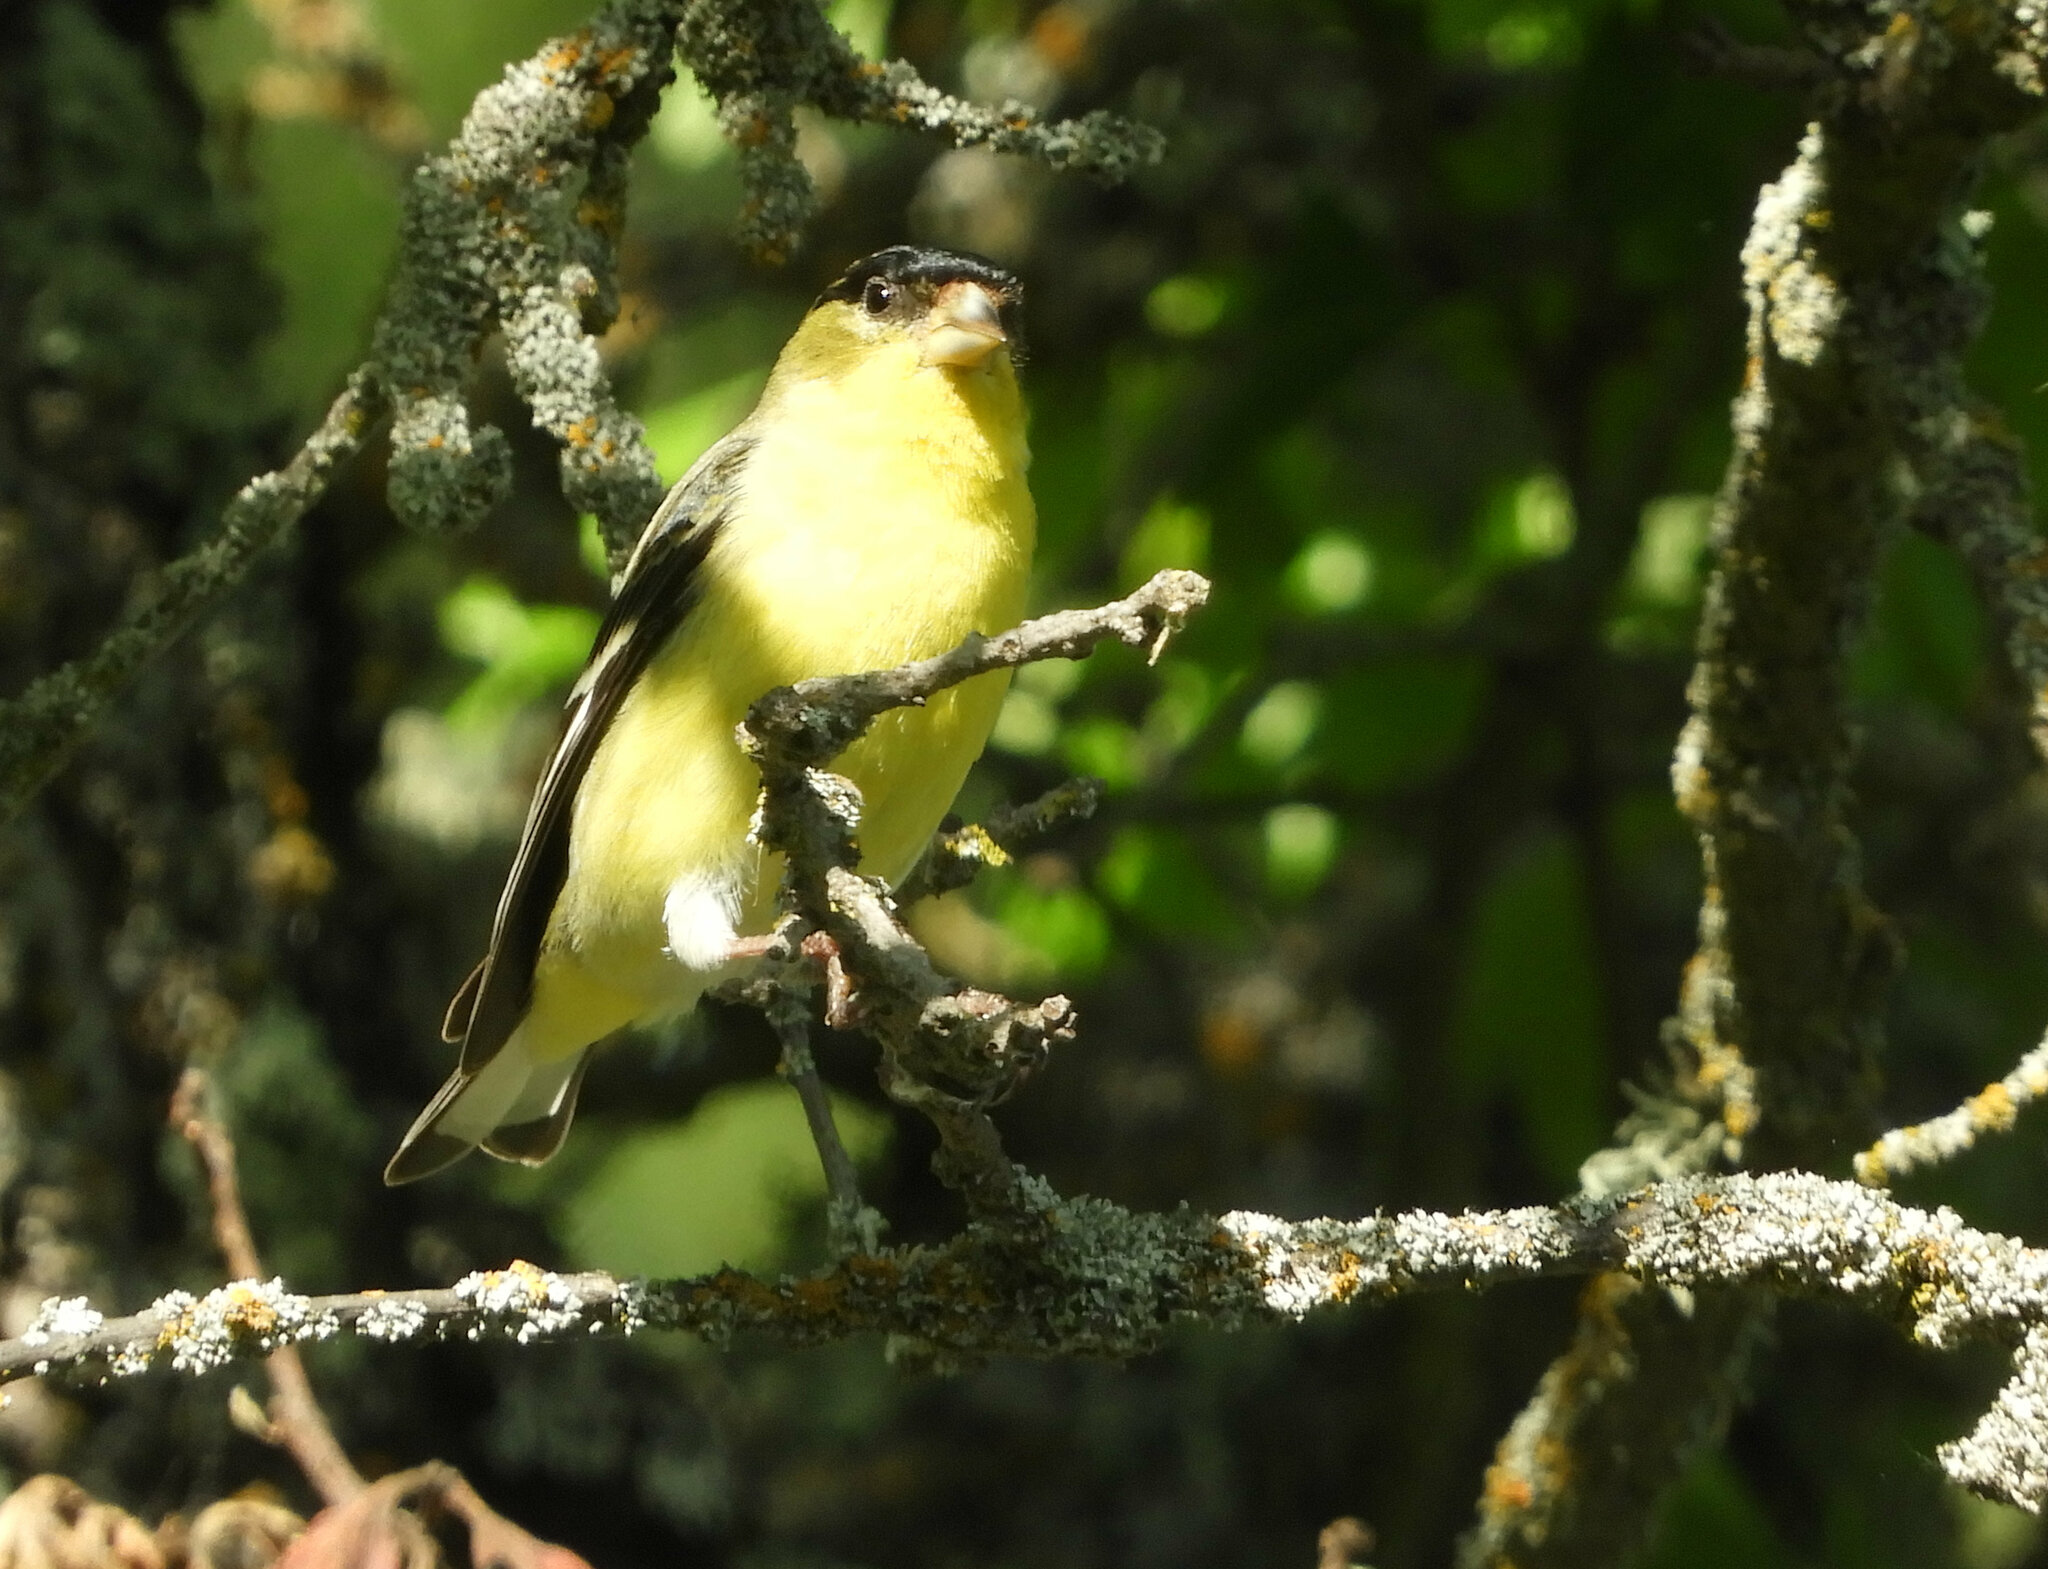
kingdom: Animalia
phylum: Chordata
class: Aves
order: Passeriformes
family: Fringillidae
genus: Spinus
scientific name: Spinus psaltria
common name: Lesser goldfinch
